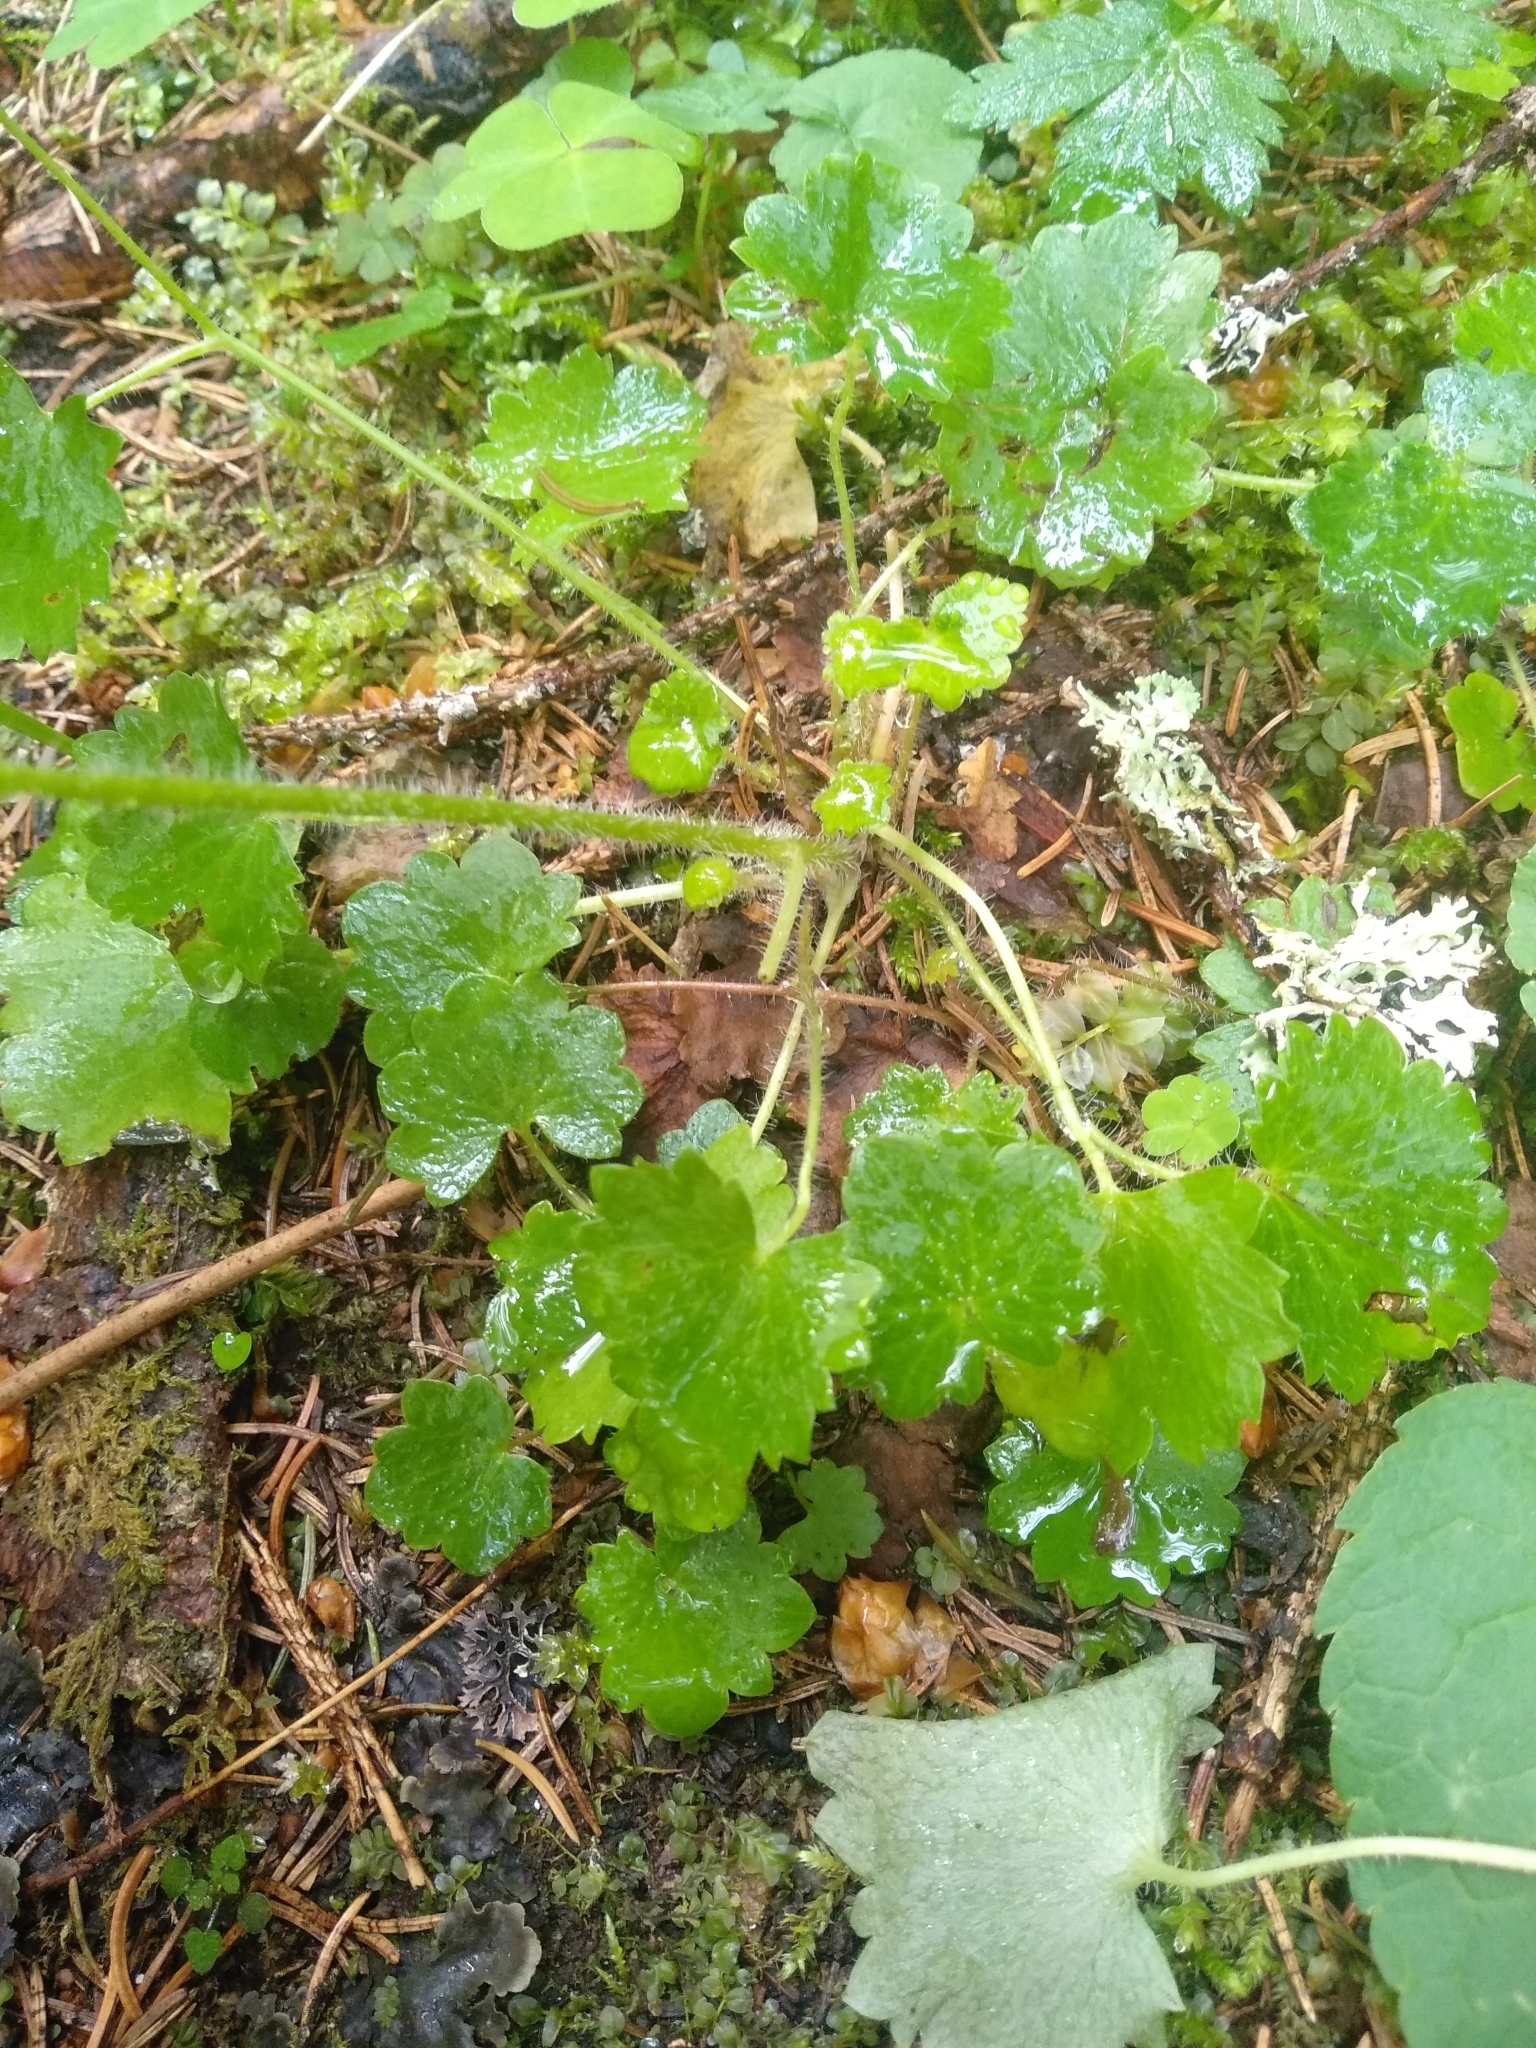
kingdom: Plantae
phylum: Tracheophyta
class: Magnoliopsida
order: Saxifragales
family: Saxifragaceae
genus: Saxifraga
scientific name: Saxifraga rotundifolia
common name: Round-leaved saxifrage
